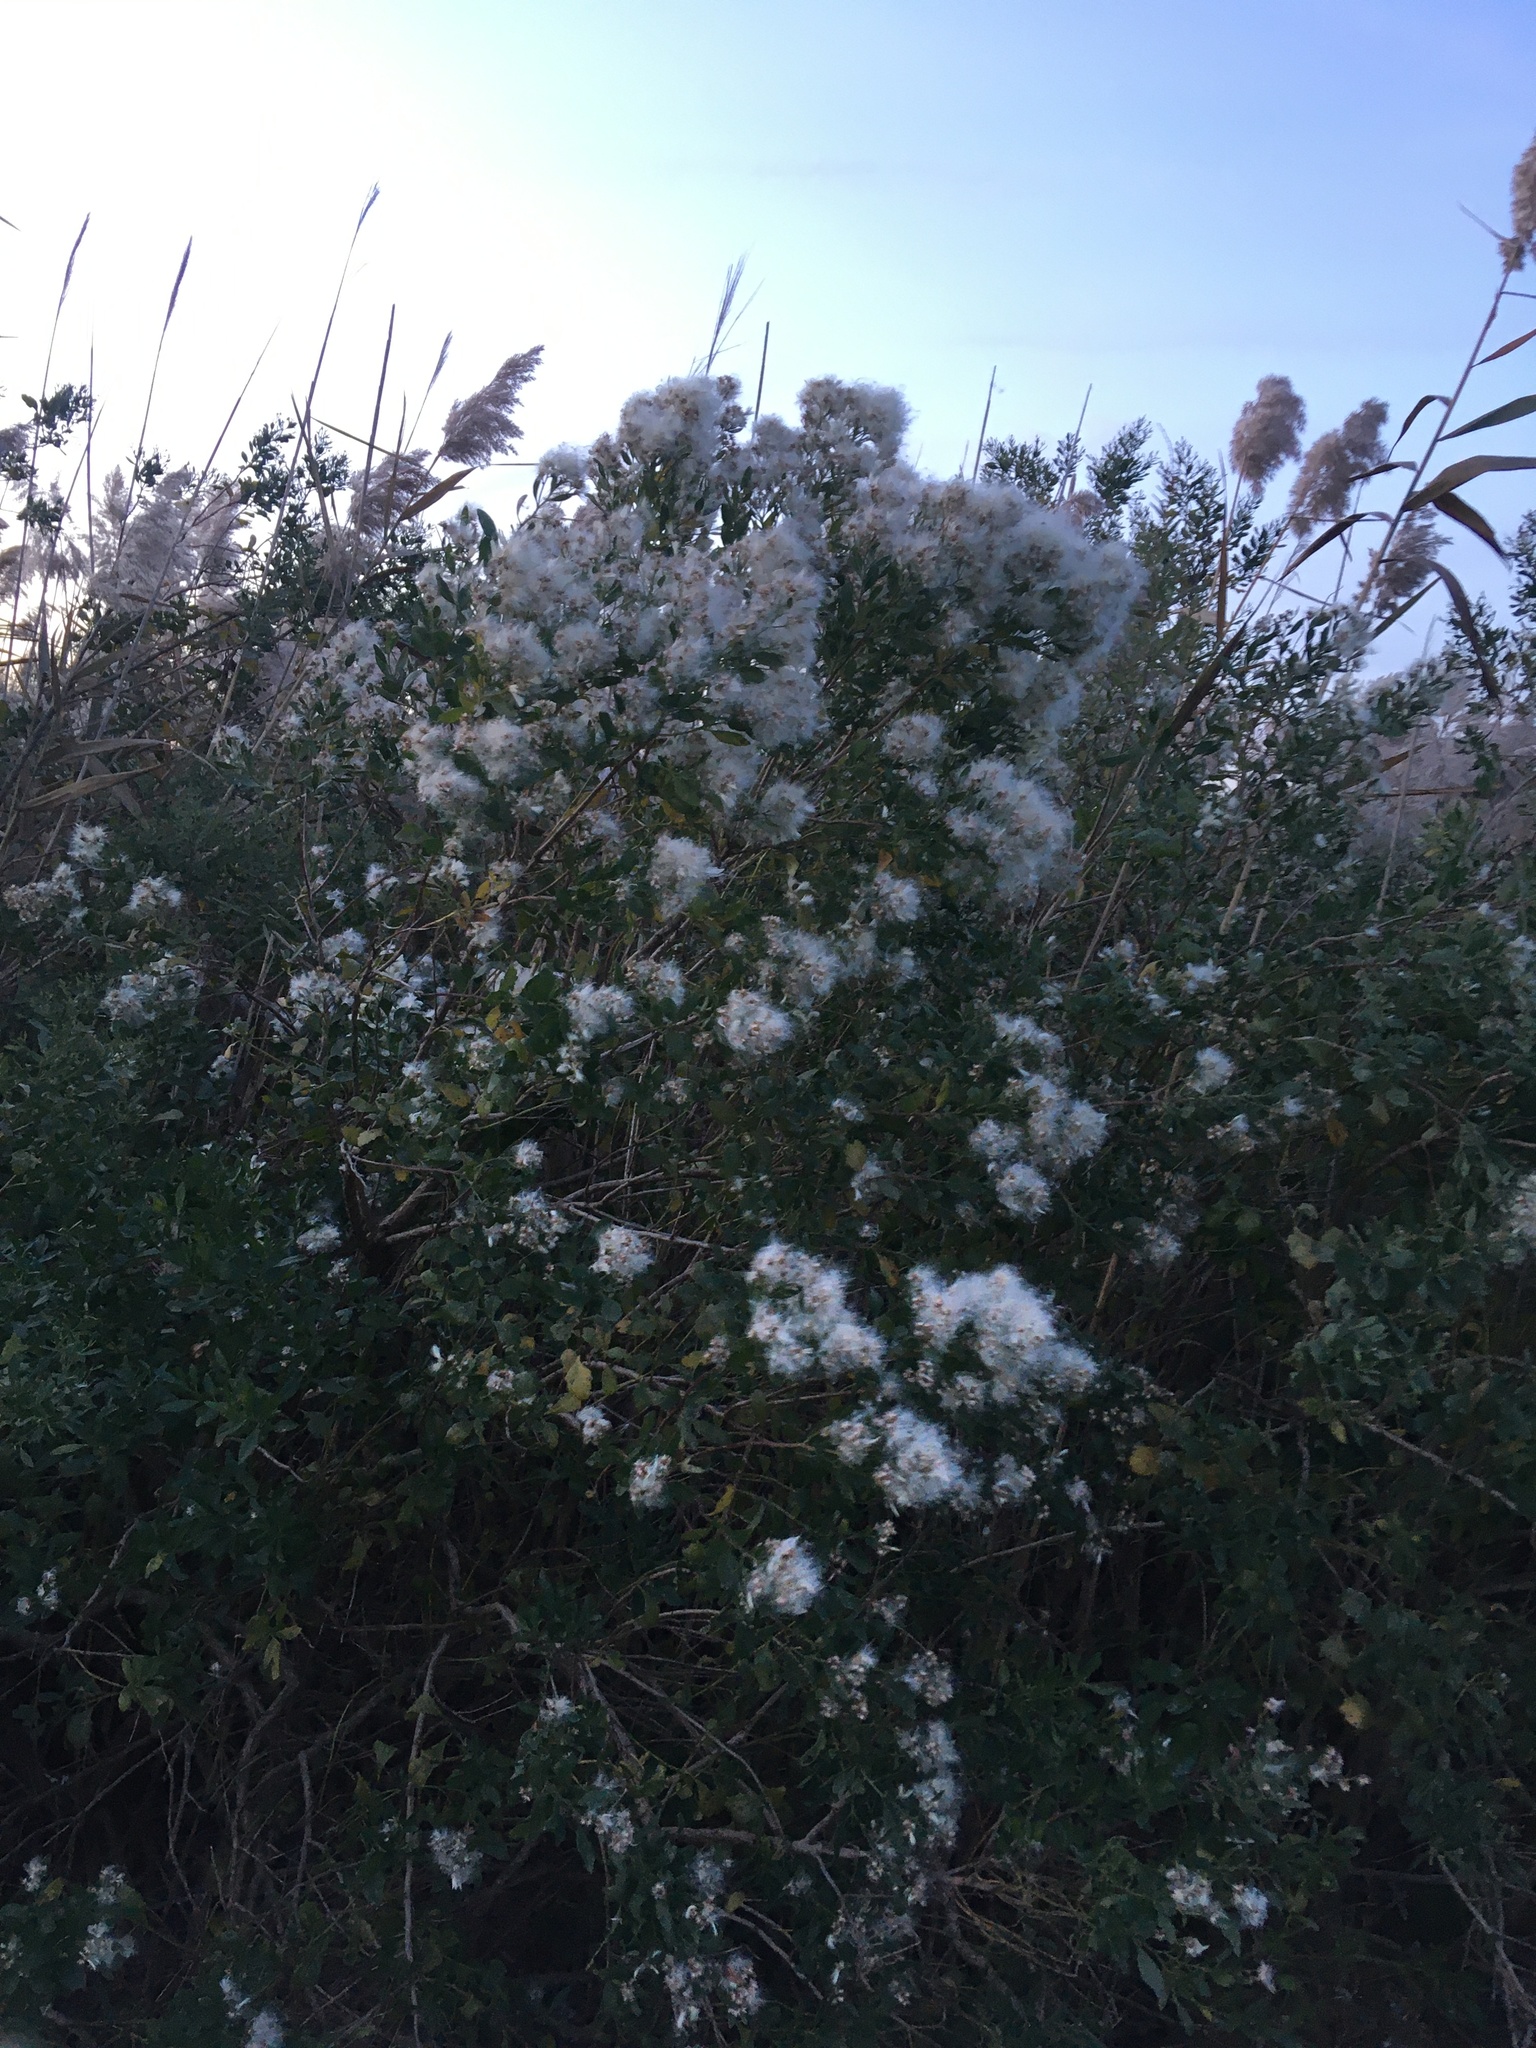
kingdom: Plantae
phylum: Tracheophyta
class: Magnoliopsida
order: Asterales
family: Asteraceae
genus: Baccharis
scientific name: Baccharis halimifolia
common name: Eastern baccharis
